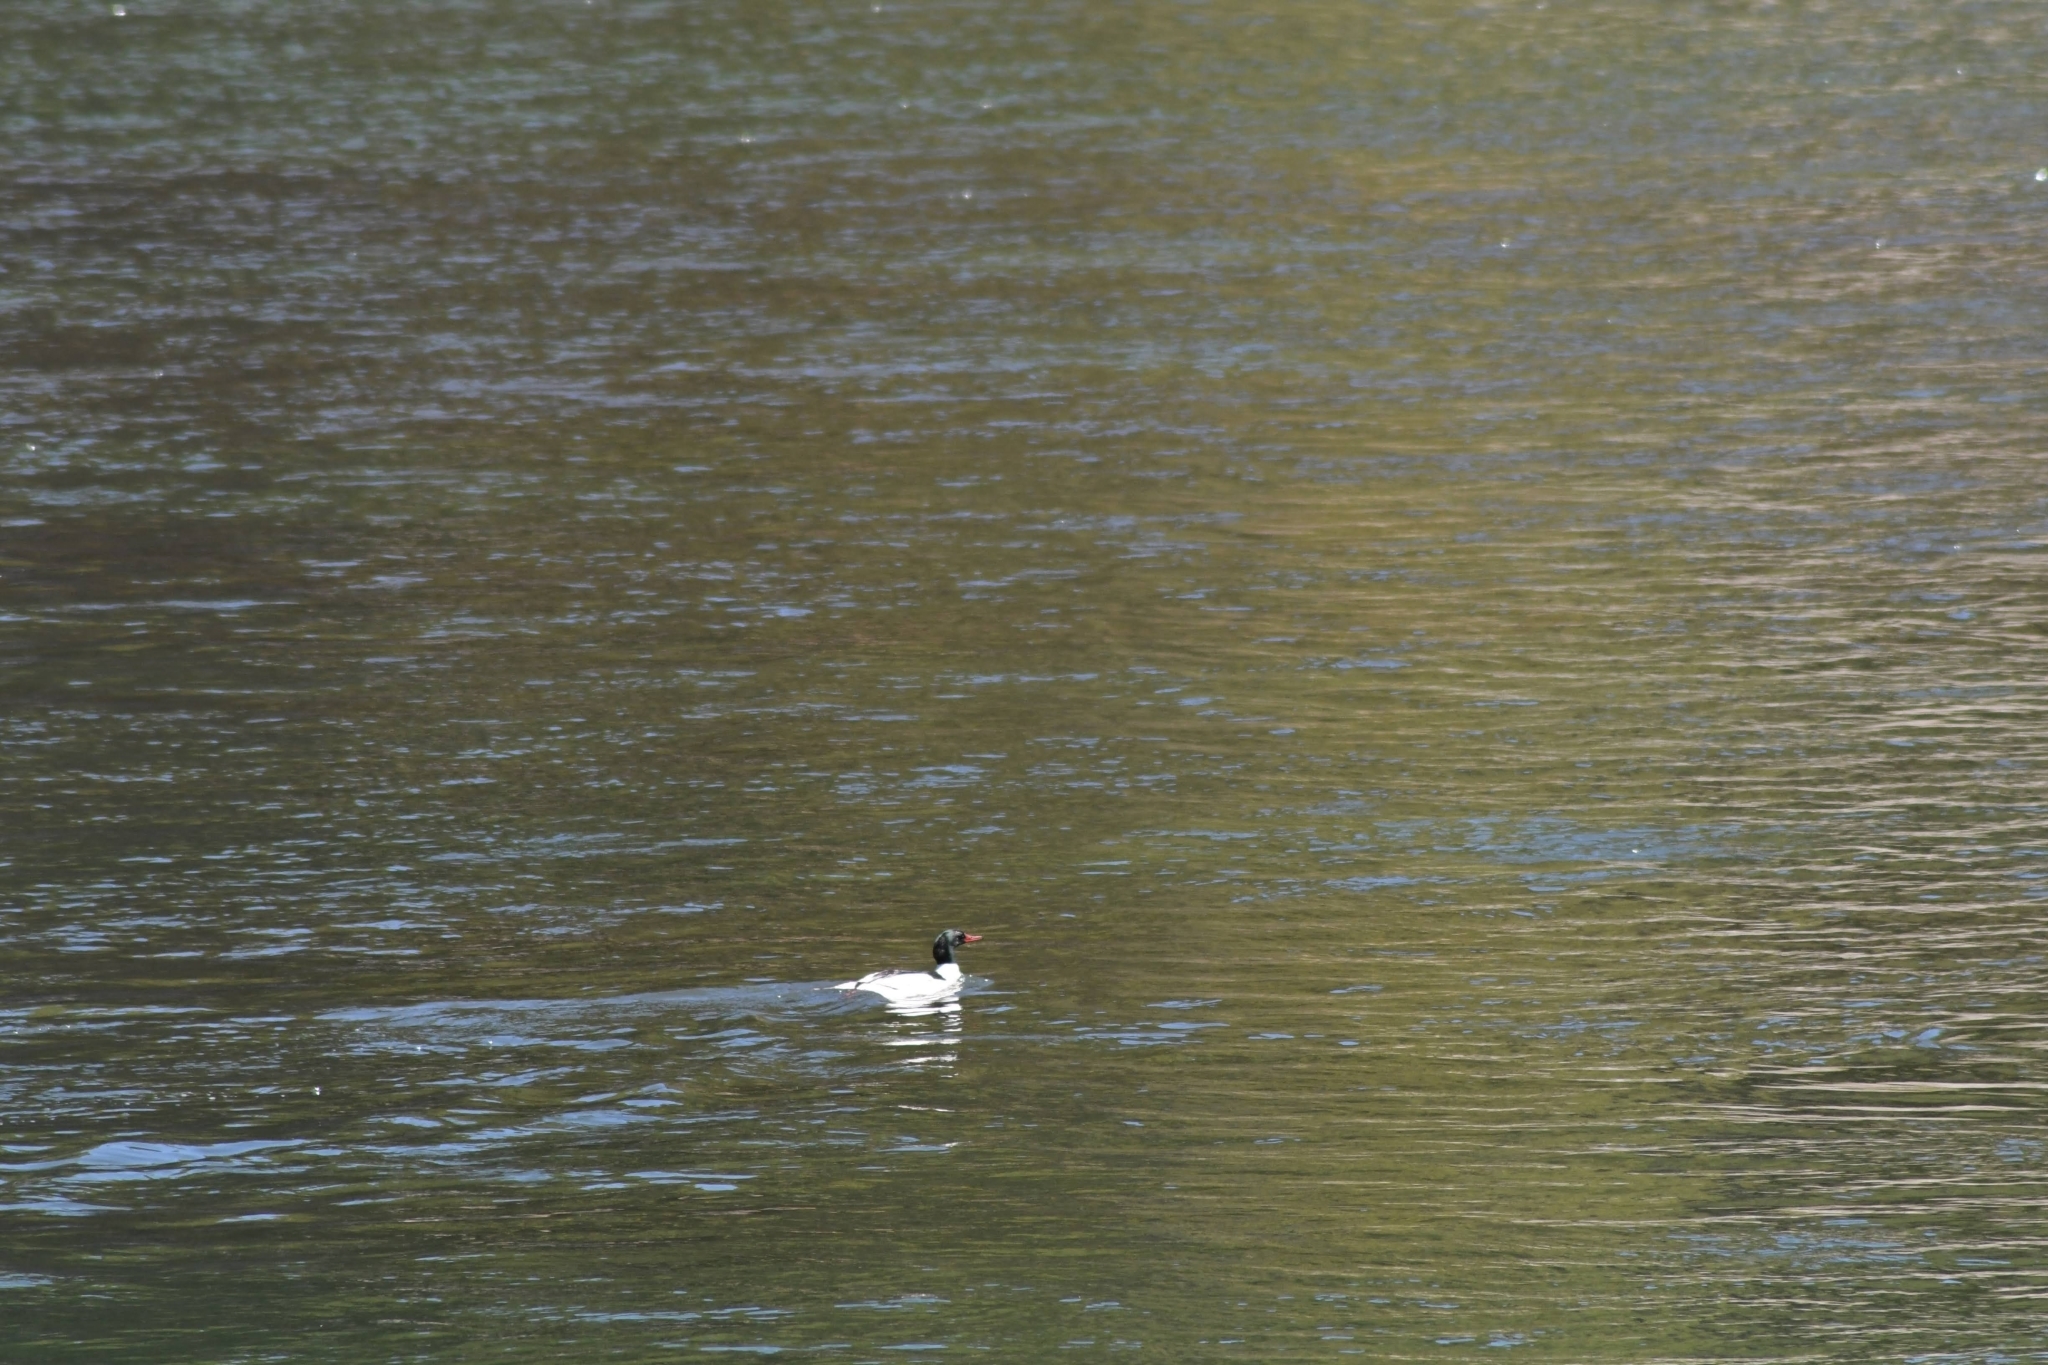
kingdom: Animalia
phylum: Chordata
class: Aves
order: Anseriformes
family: Anatidae
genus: Mergus
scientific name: Mergus merganser
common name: Common merganser
